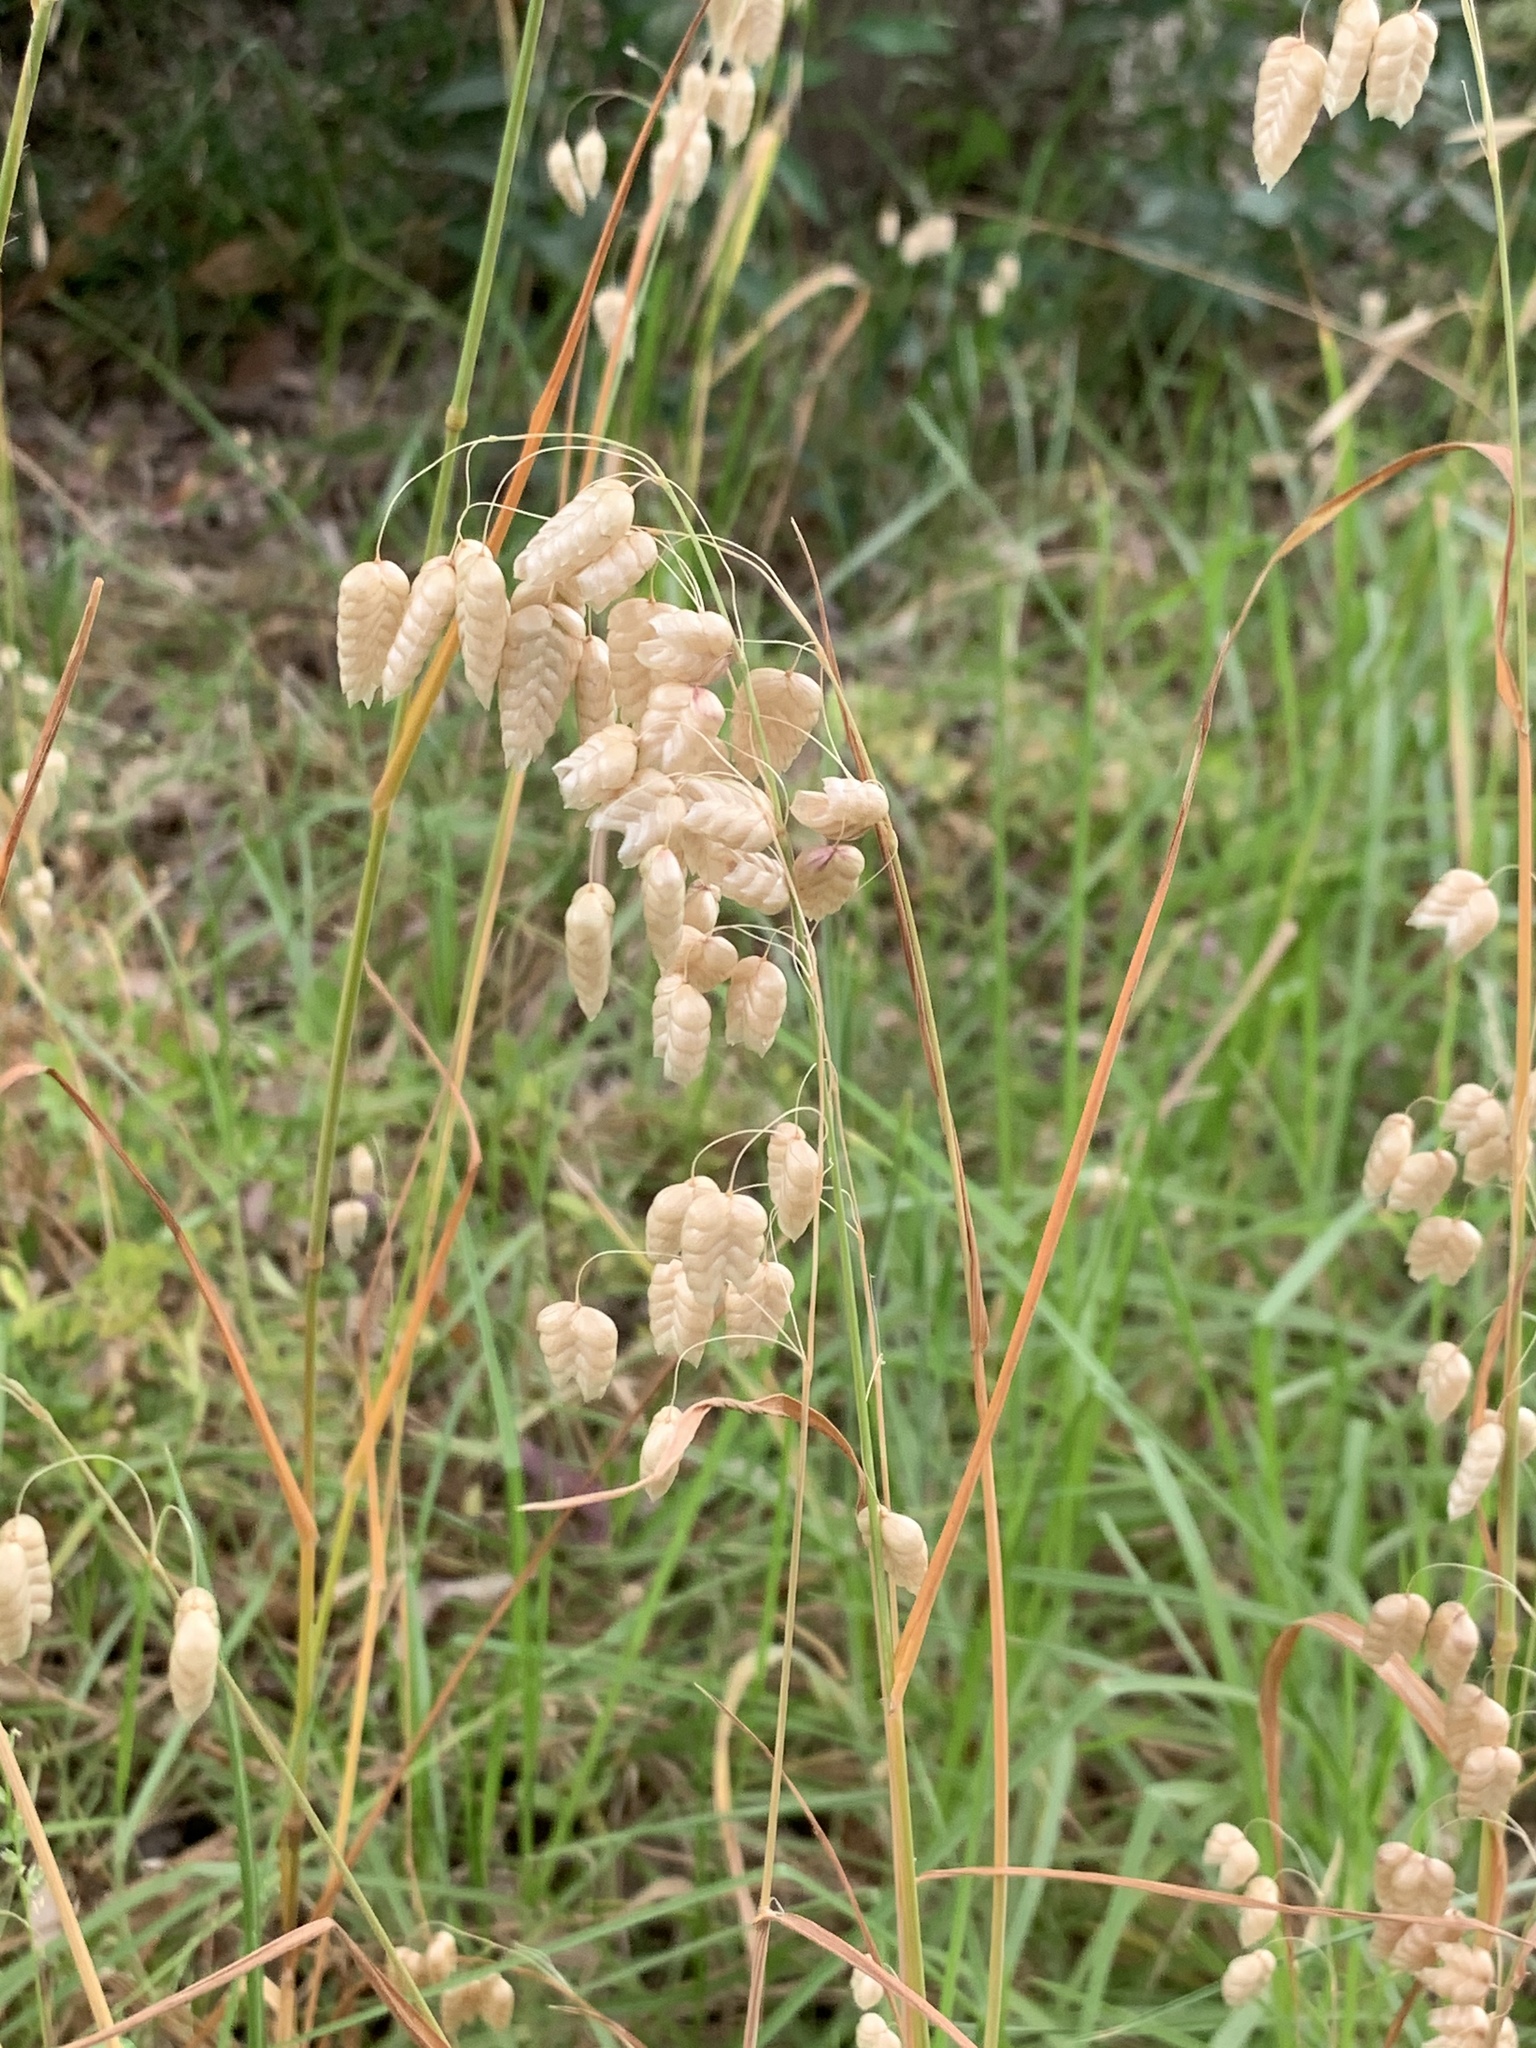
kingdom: Plantae
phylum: Tracheophyta
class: Liliopsida
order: Poales
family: Poaceae
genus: Briza
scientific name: Briza maxima
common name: Big quakinggrass
